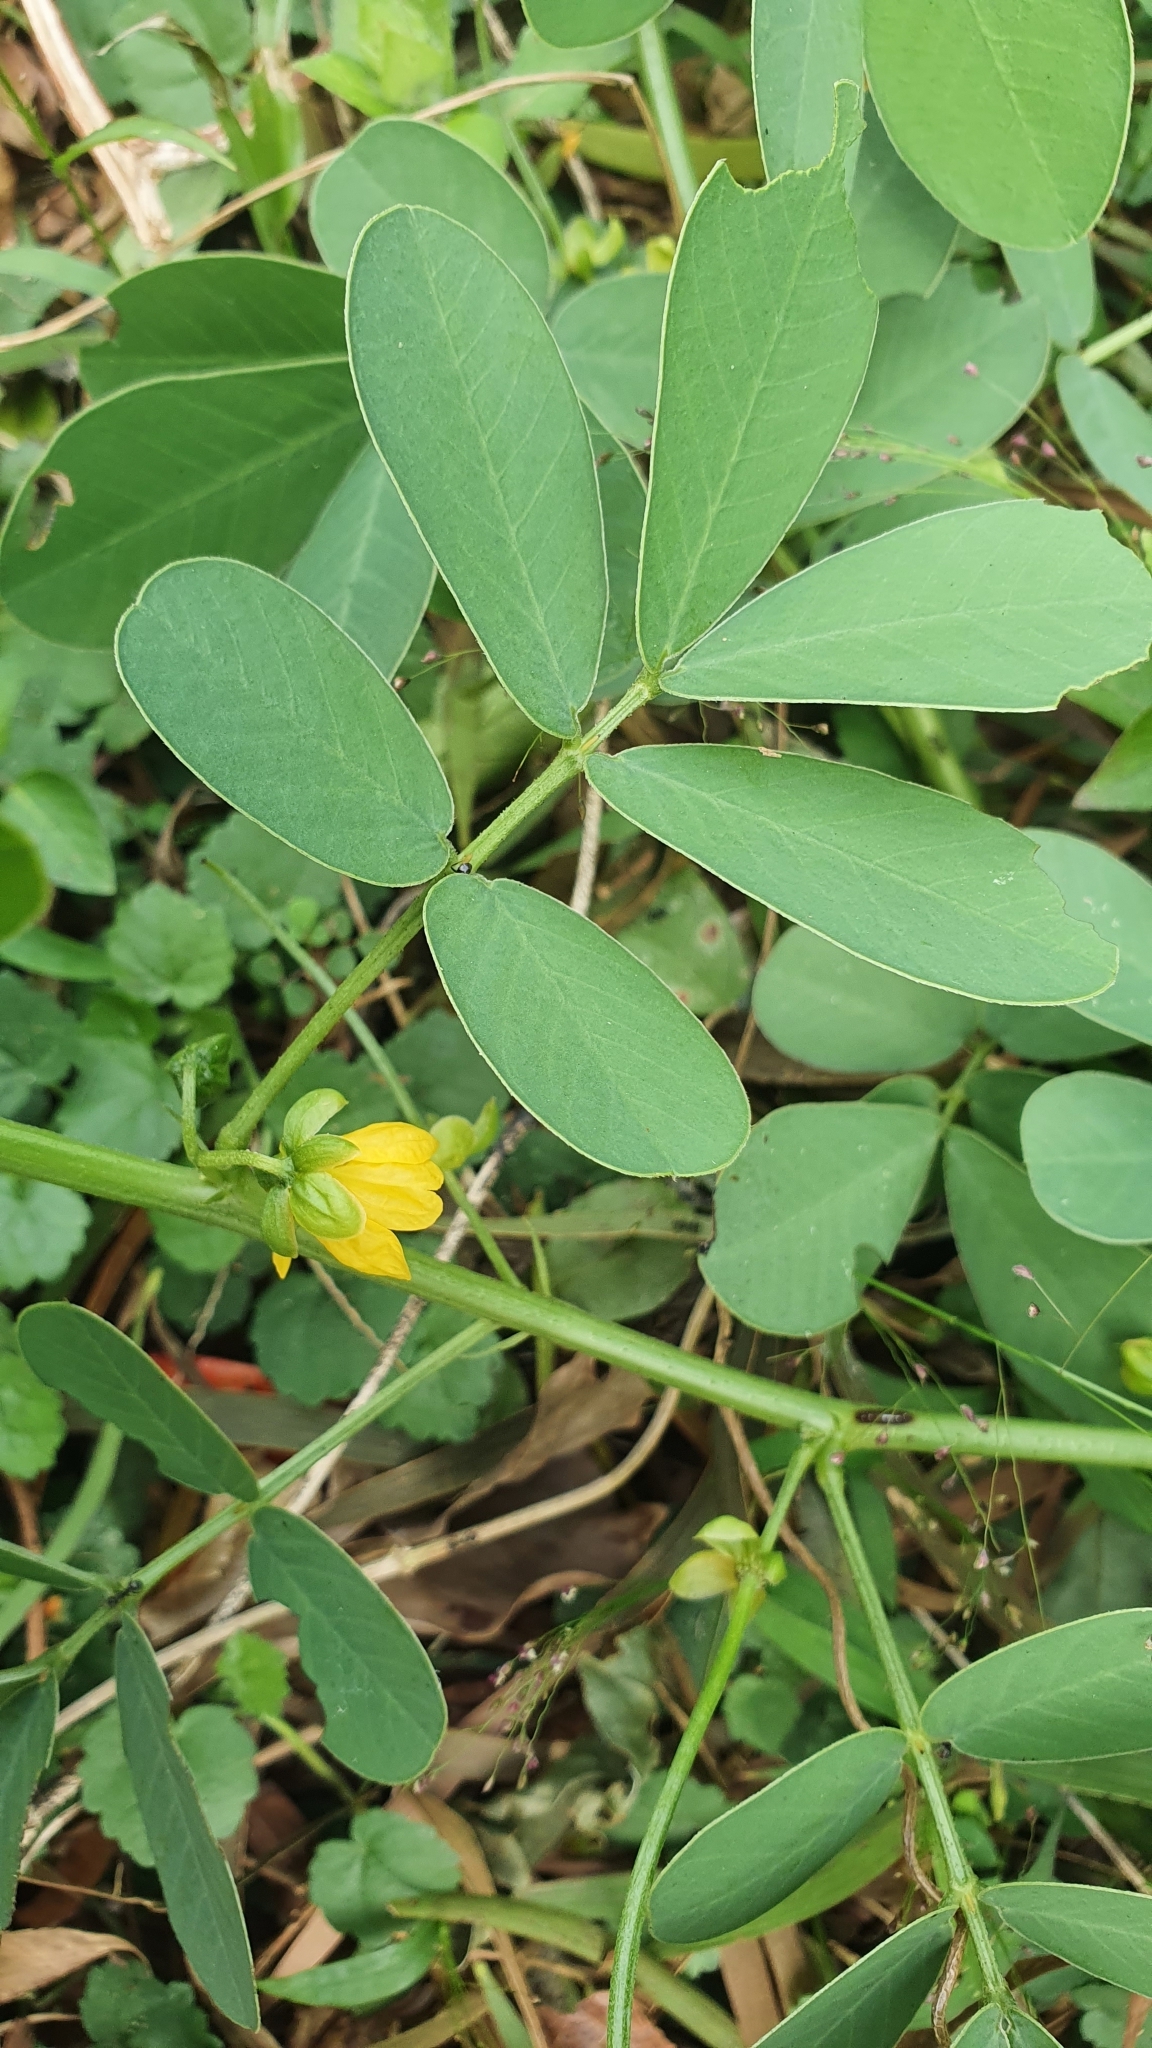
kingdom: Plantae
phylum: Tracheophyta
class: Magnoliopsida
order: Fabales
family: Fabaceae
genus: Senna
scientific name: Senna tora
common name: Sickle senna
